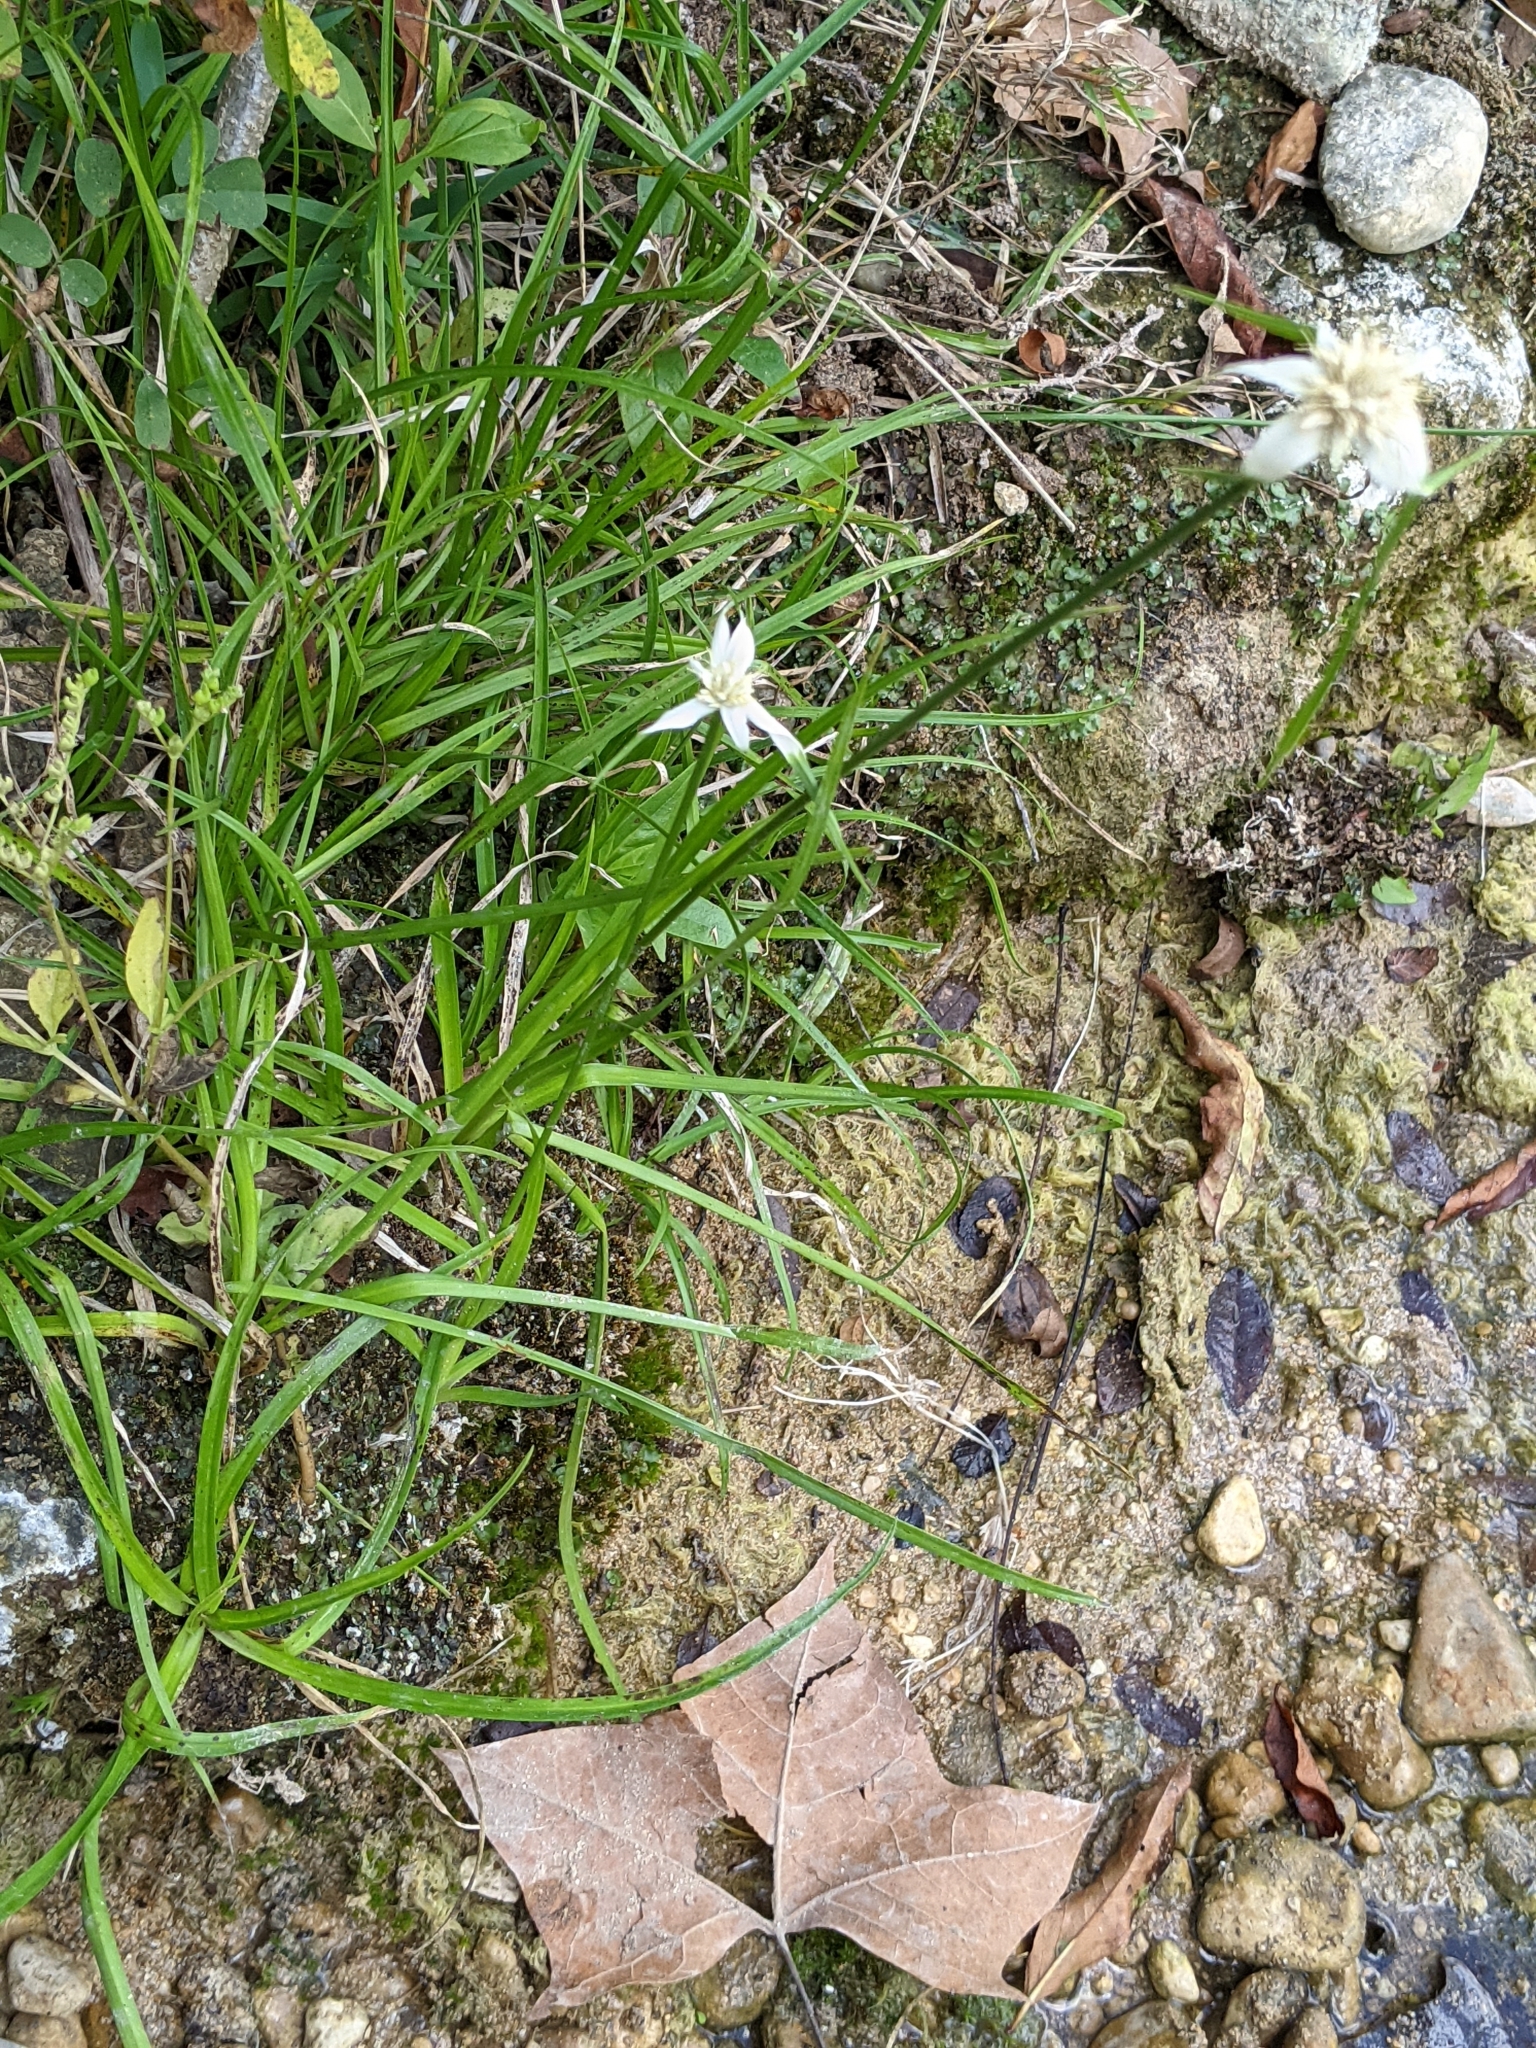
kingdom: Plantae
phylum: Tracheophyta
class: Liliopsida
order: Poales
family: Cyperaceae
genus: Rhynchospora
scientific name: Rhynchospora colorata
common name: Star sedge
